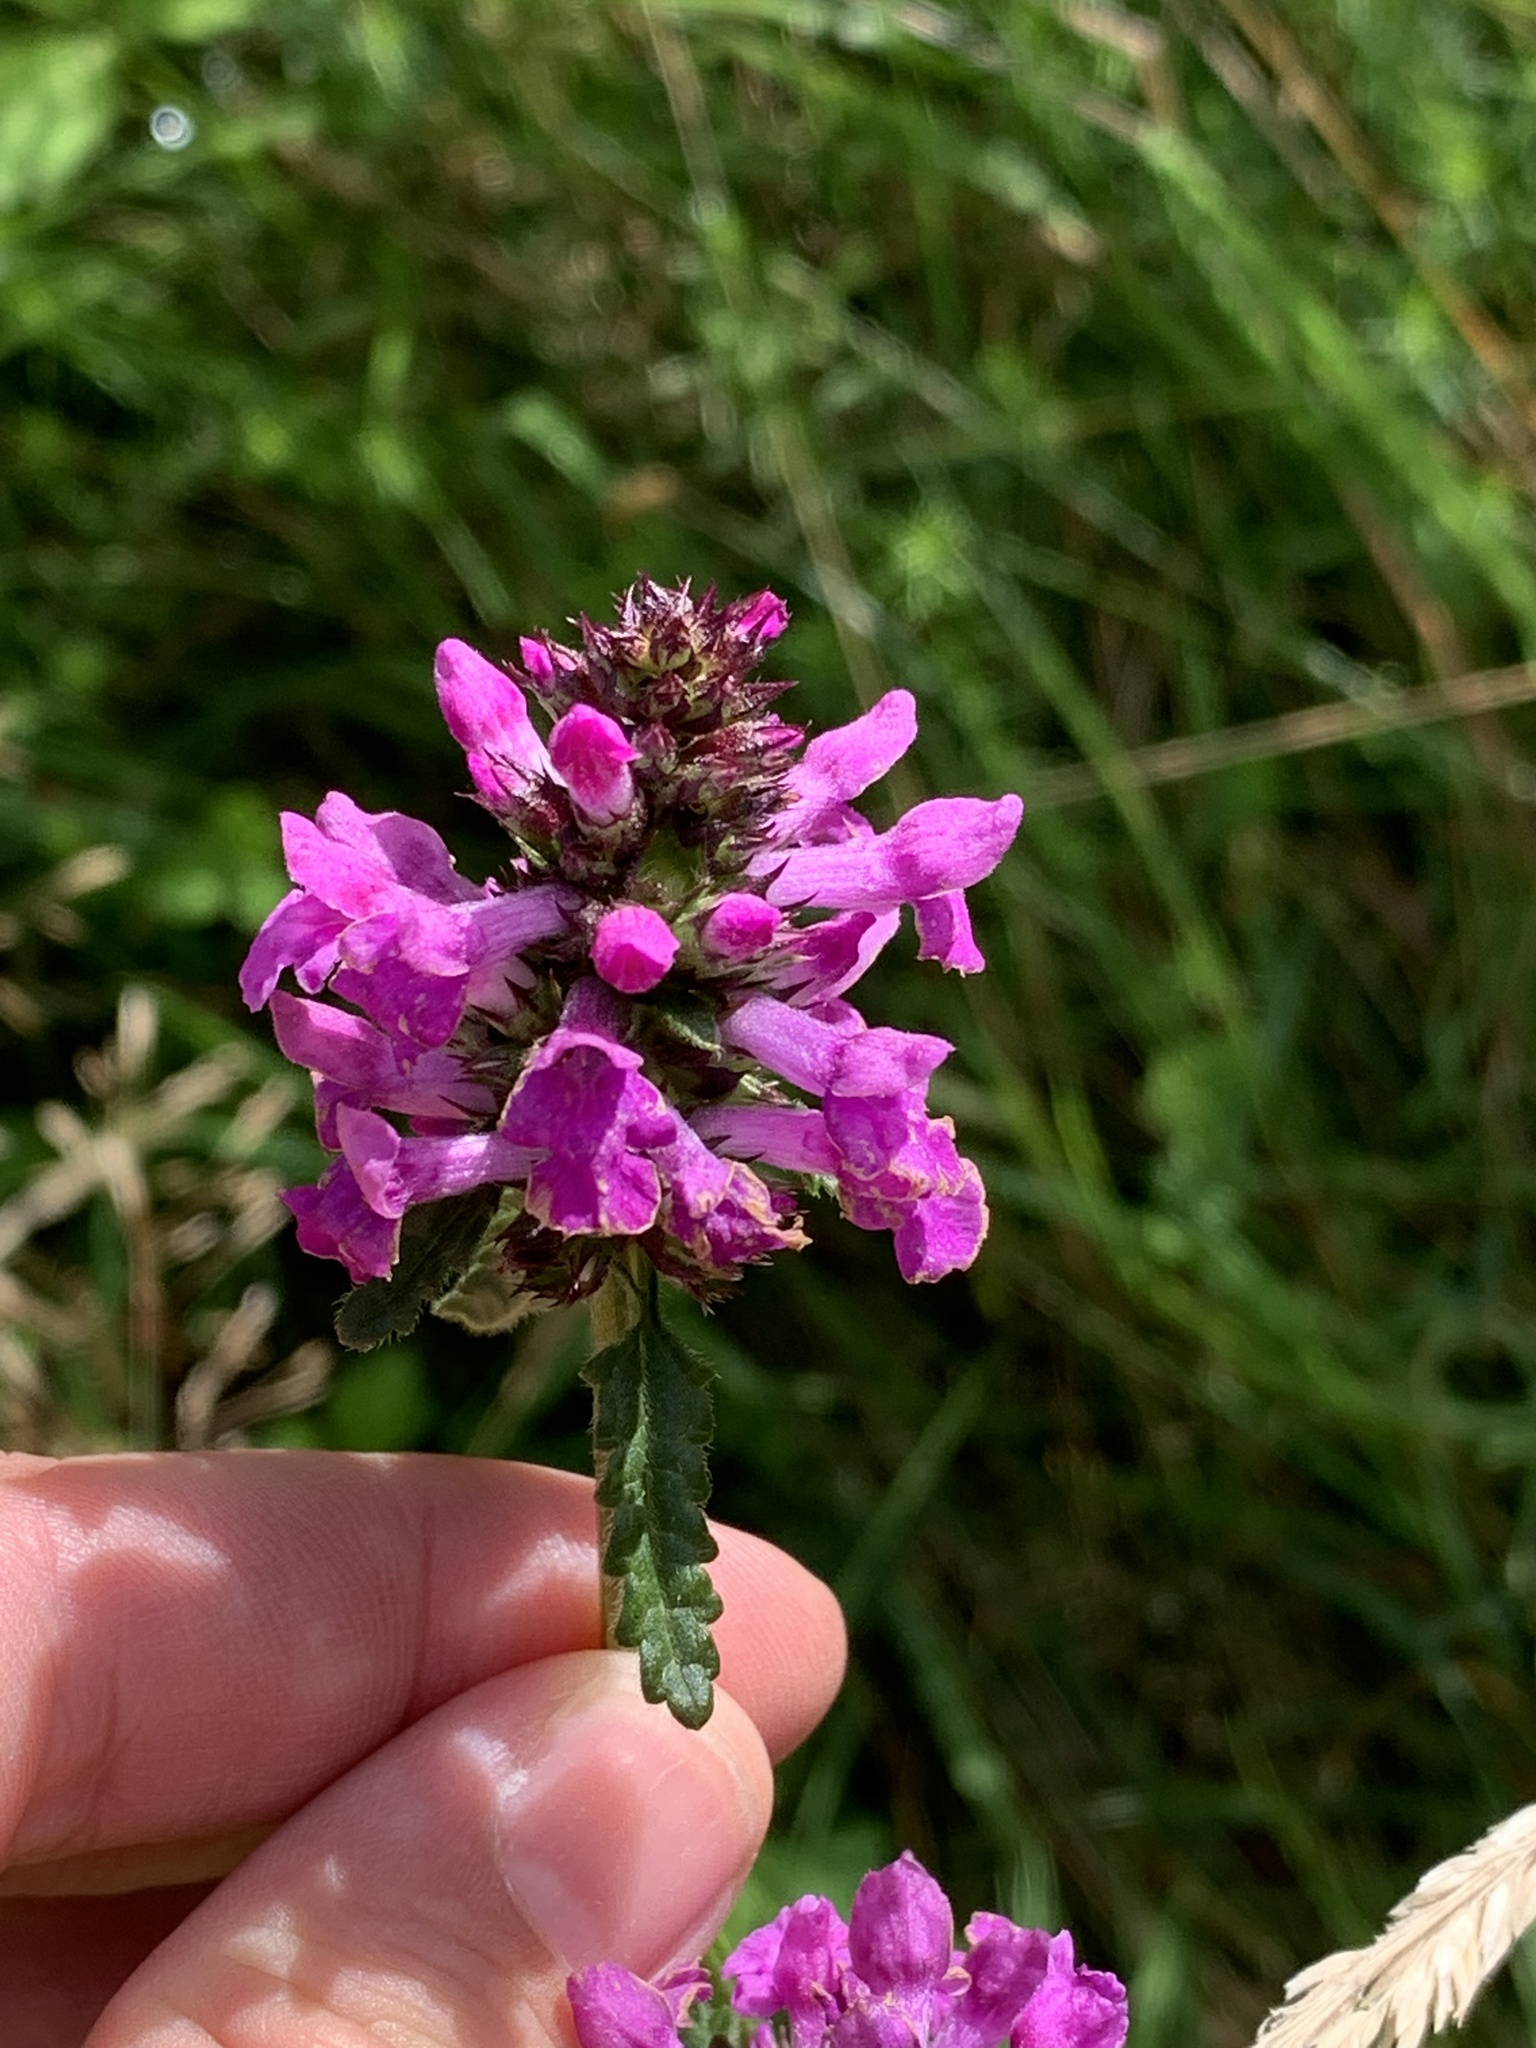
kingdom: Plantae
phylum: Tracheophyta
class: Magnoliopsida
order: Lamiales
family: Lamiaceae
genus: Betonica
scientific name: Betonica officinalis
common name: Bishop's-wort
